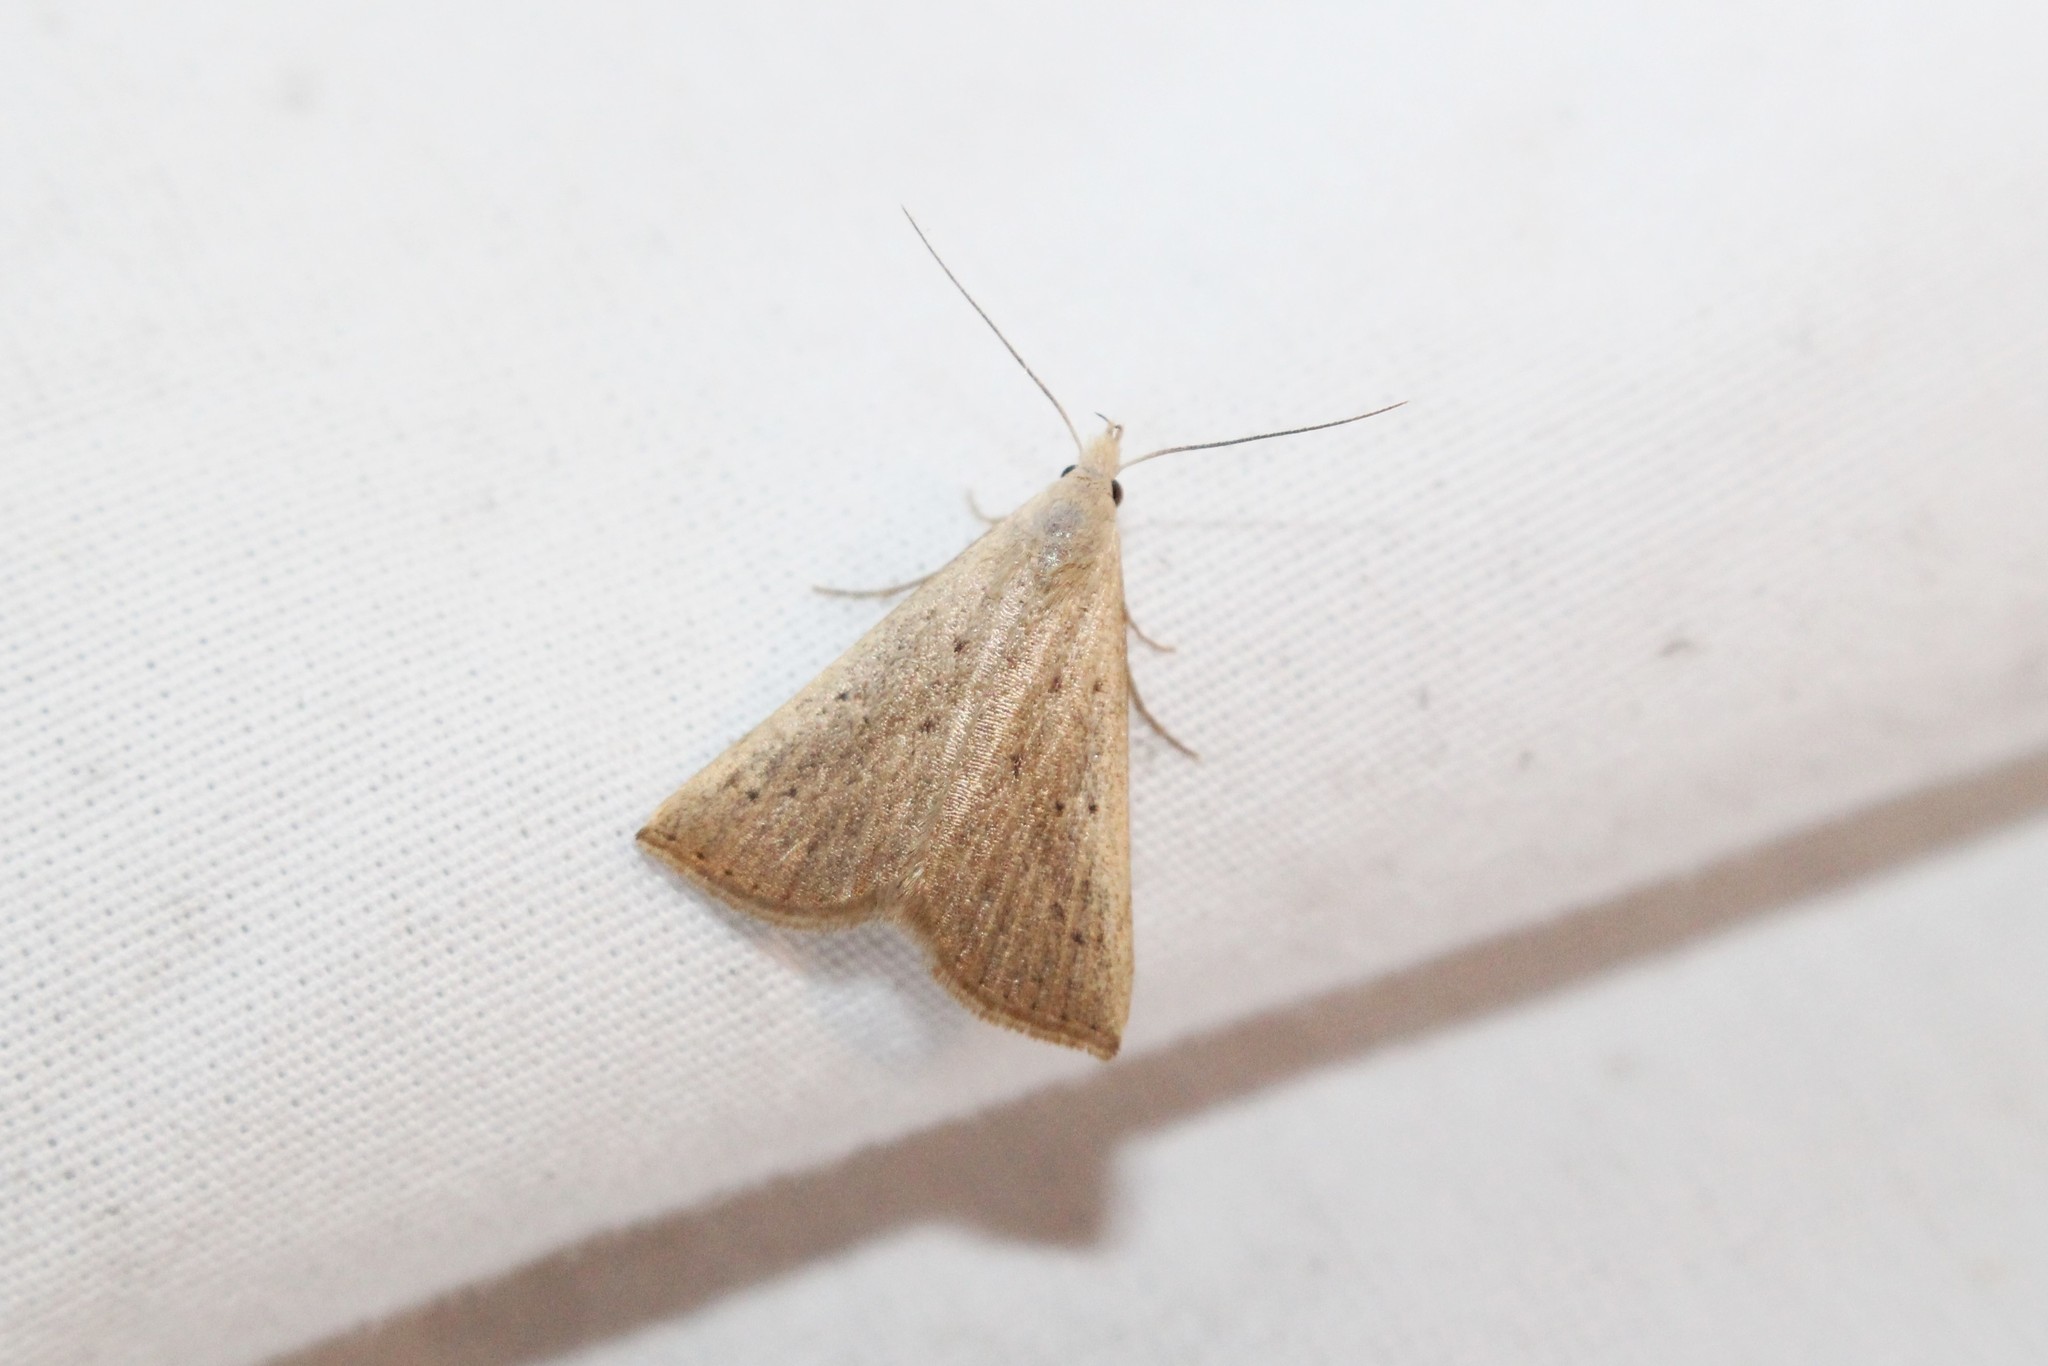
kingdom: Animalia
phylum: Arthropoda
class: Insecta
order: Lepidoptera
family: Erebidae
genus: Macrochilo
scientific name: Macrochilo louisiana
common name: Louisiana macrochilo
